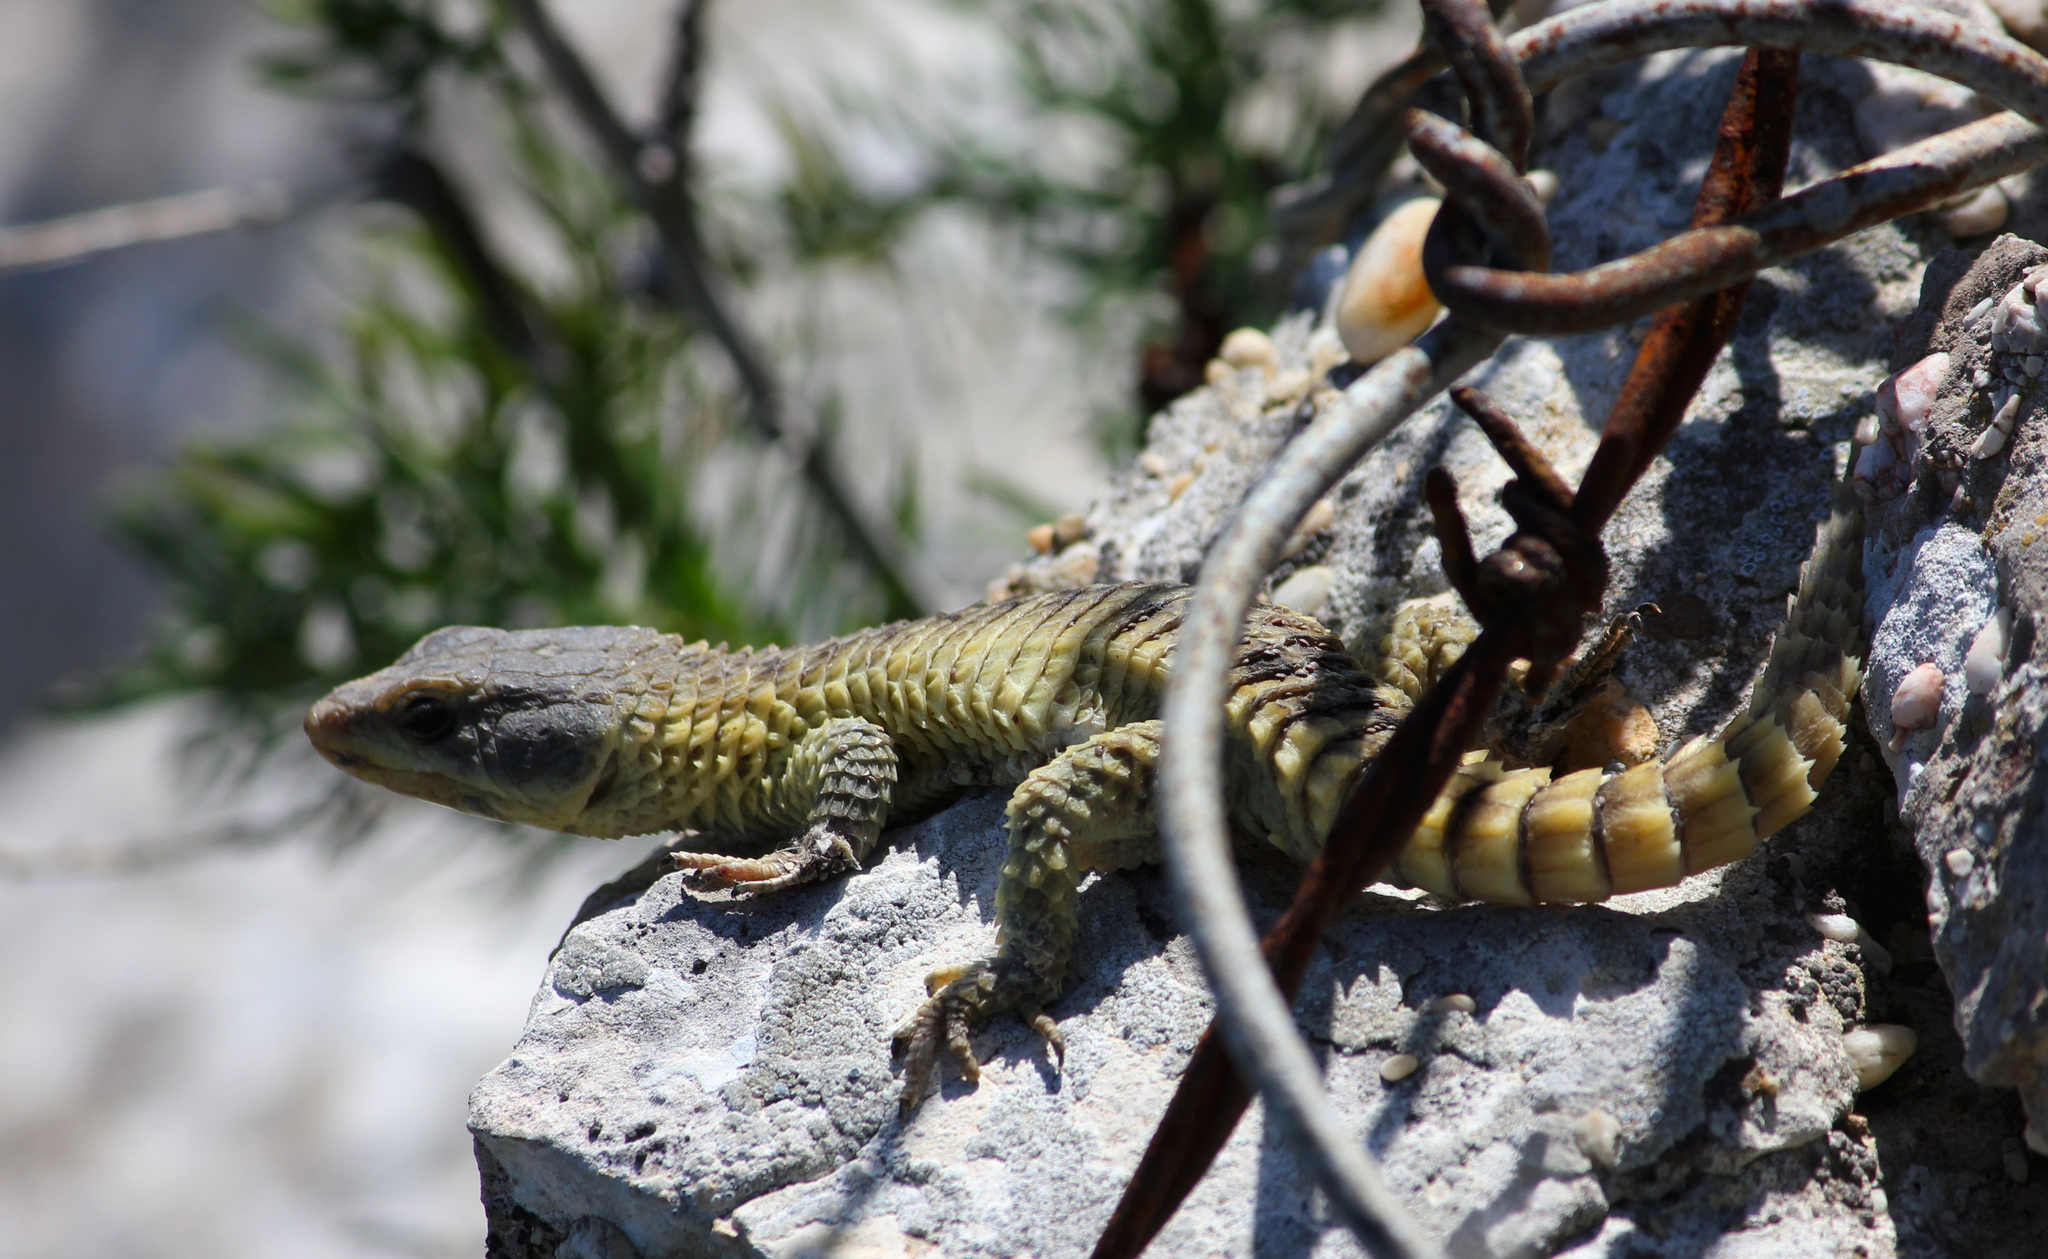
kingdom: Animalia
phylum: Chordata
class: Squamata
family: Cordylidae
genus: Cordylus
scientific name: Cordylus cordylus
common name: Cape girdled lizard
